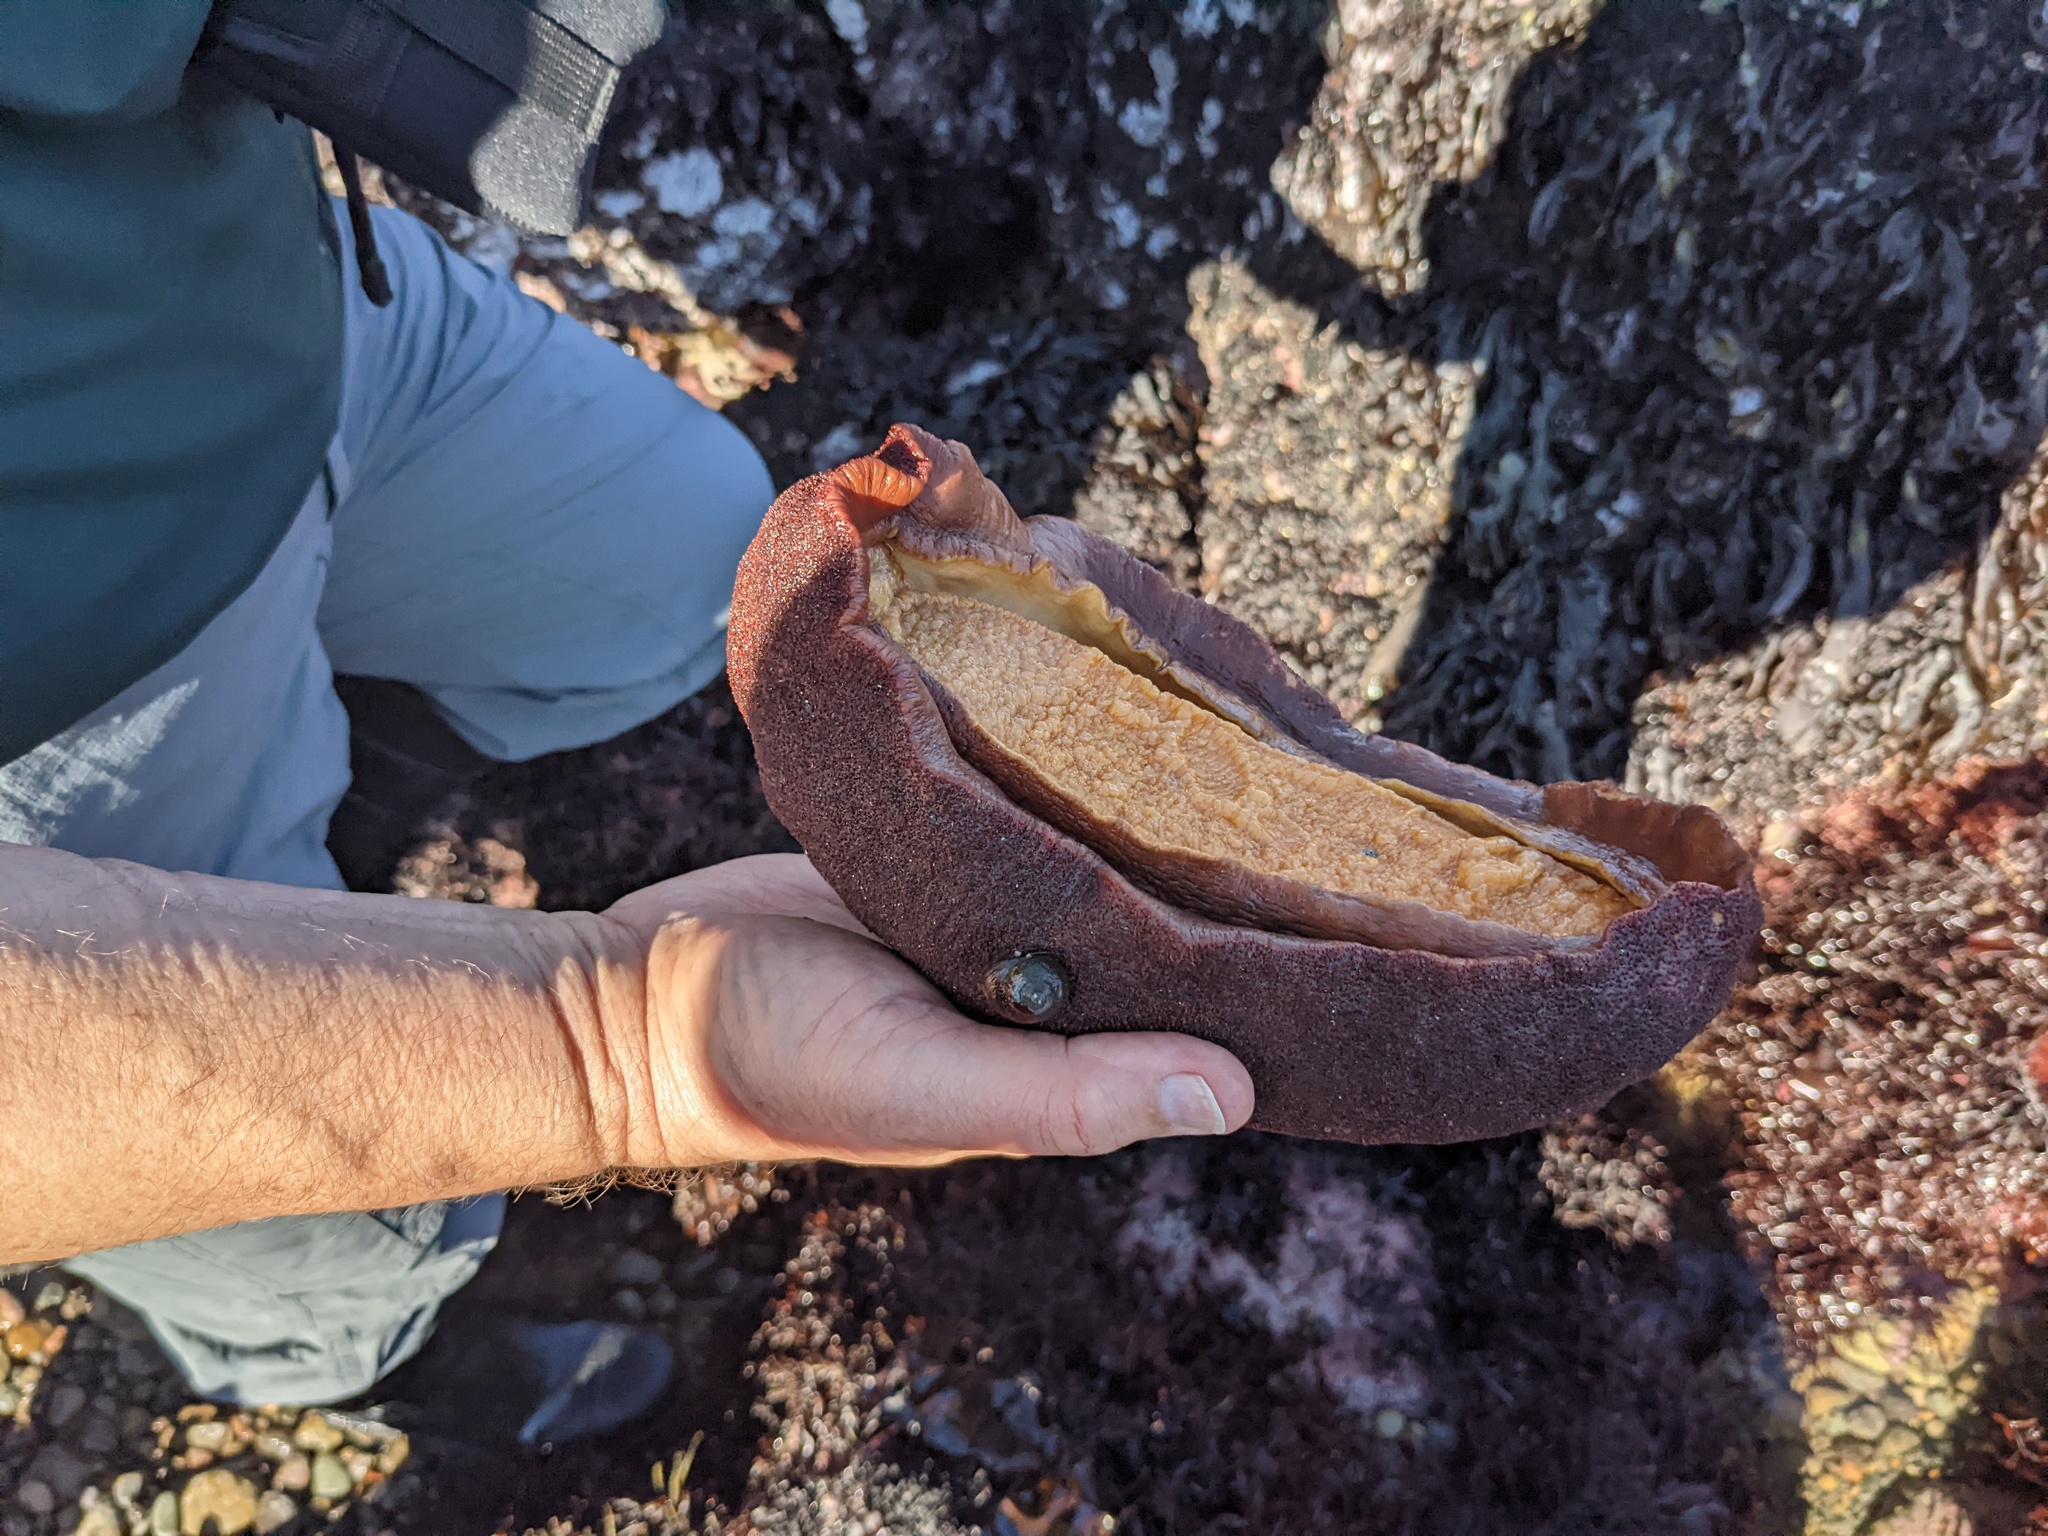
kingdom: Animalia
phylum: Mollusca
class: Polyplacophora
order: Chitonida
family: Acanthochitonidae
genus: Cryptochiton
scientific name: Cryptochiton stelleri
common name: Giant pacific chiton
